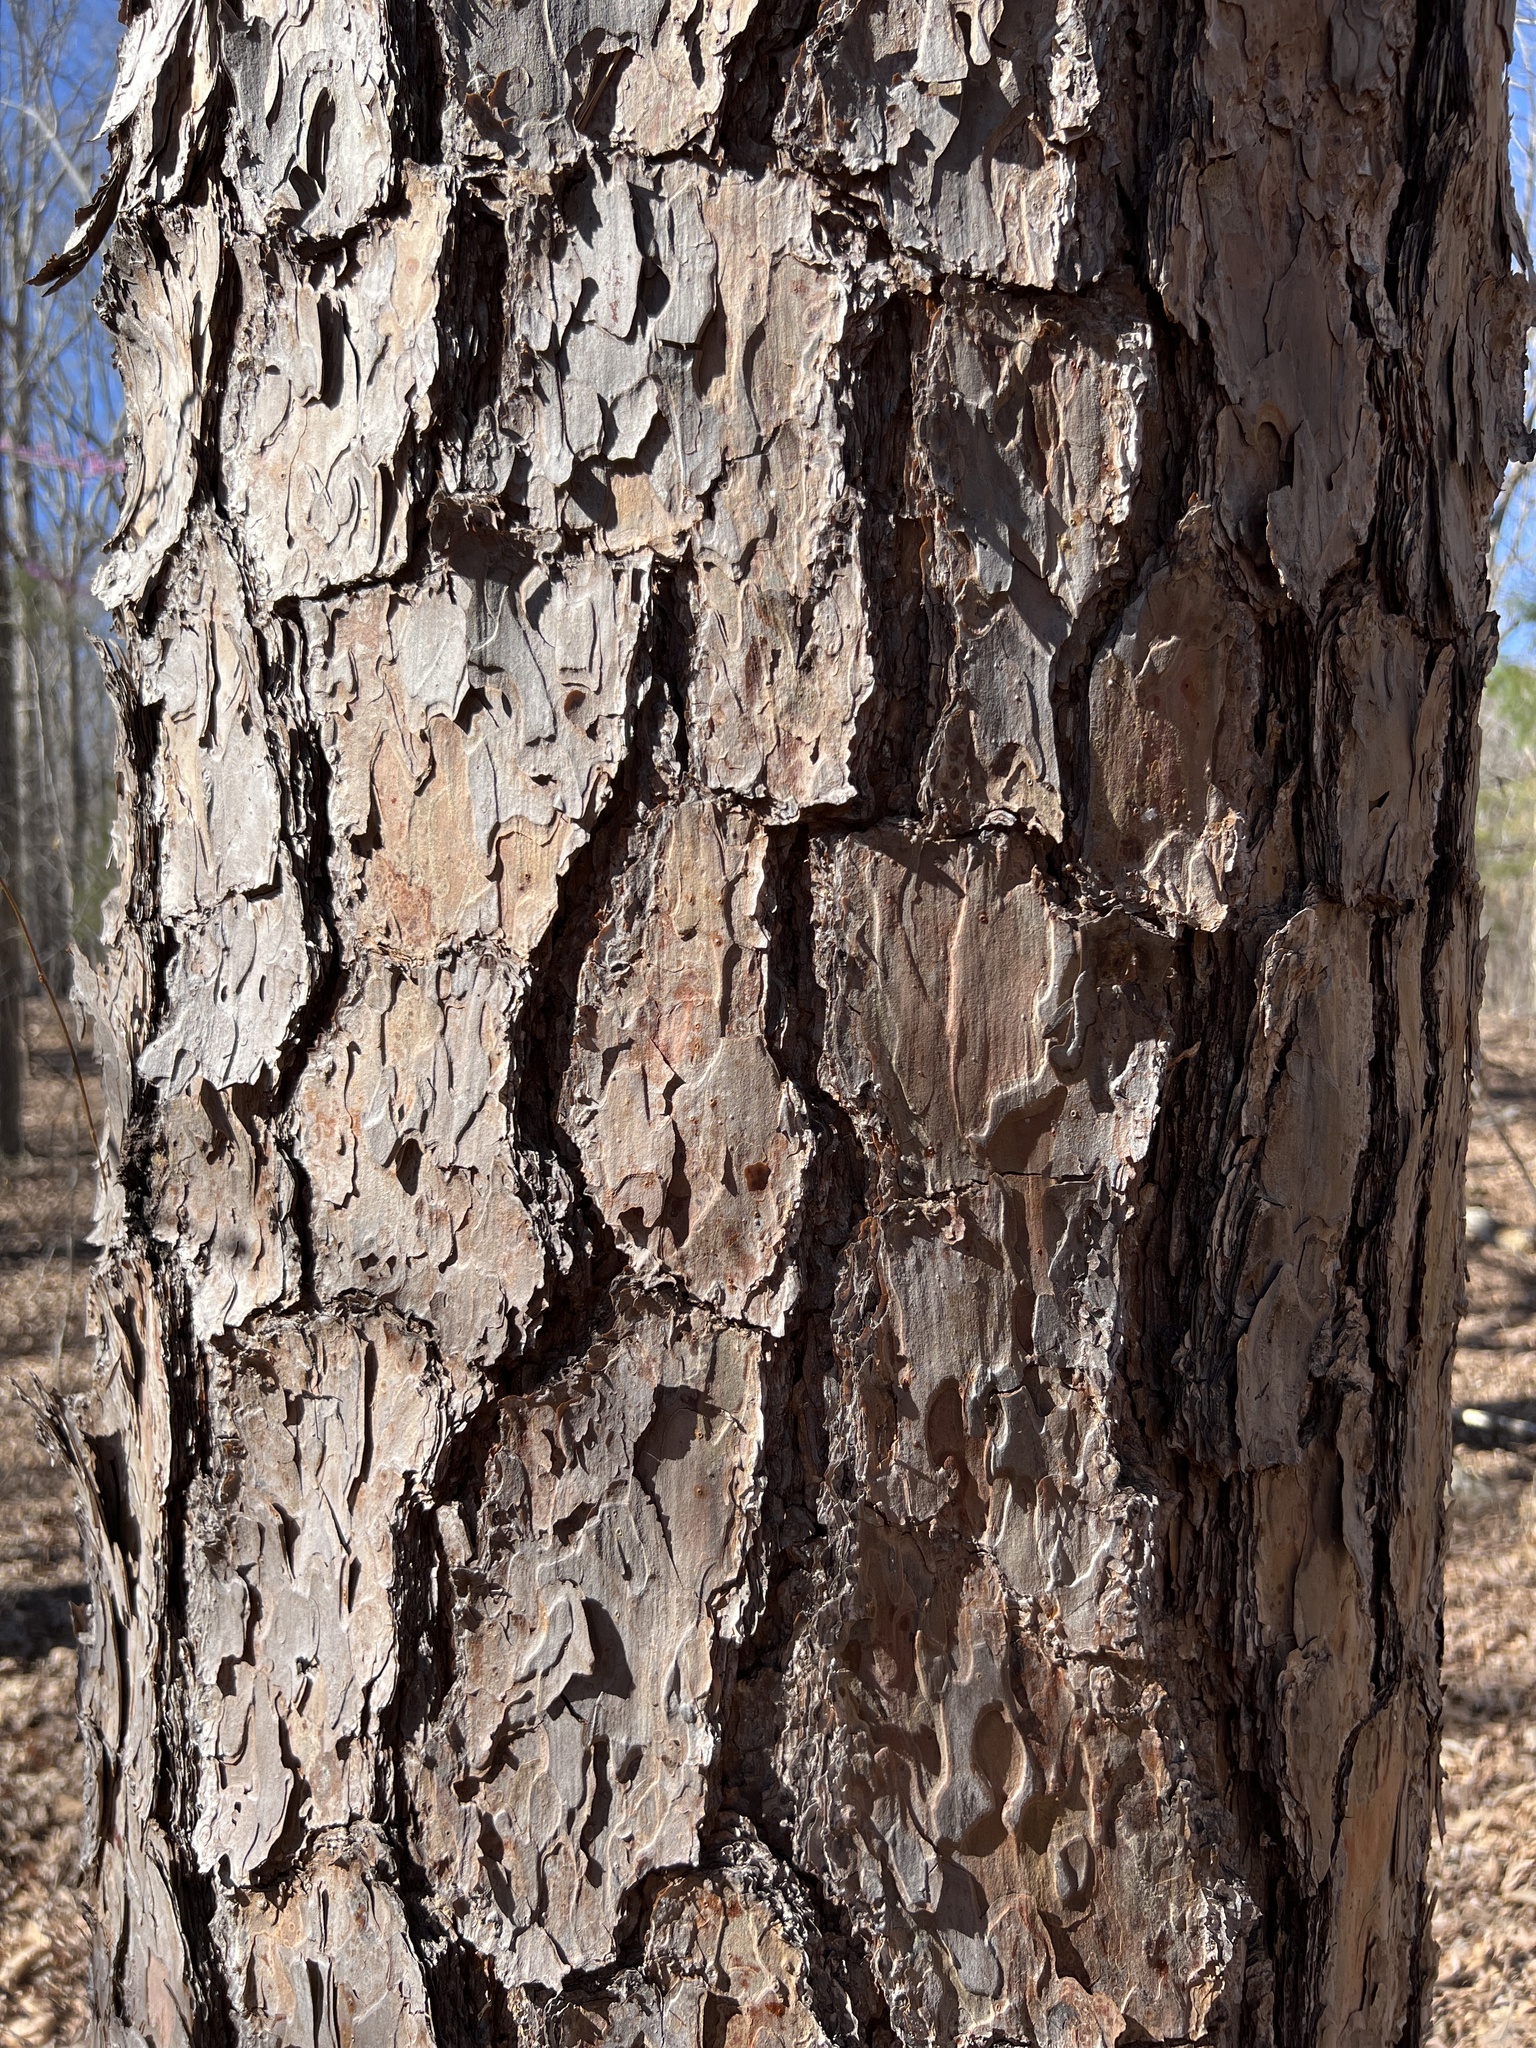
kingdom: Plantae
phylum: Tracheophyta
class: Pinopsida
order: Pinales
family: Pinaceae
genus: Pinus
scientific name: Pinus echinata
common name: Shortleaf pine
